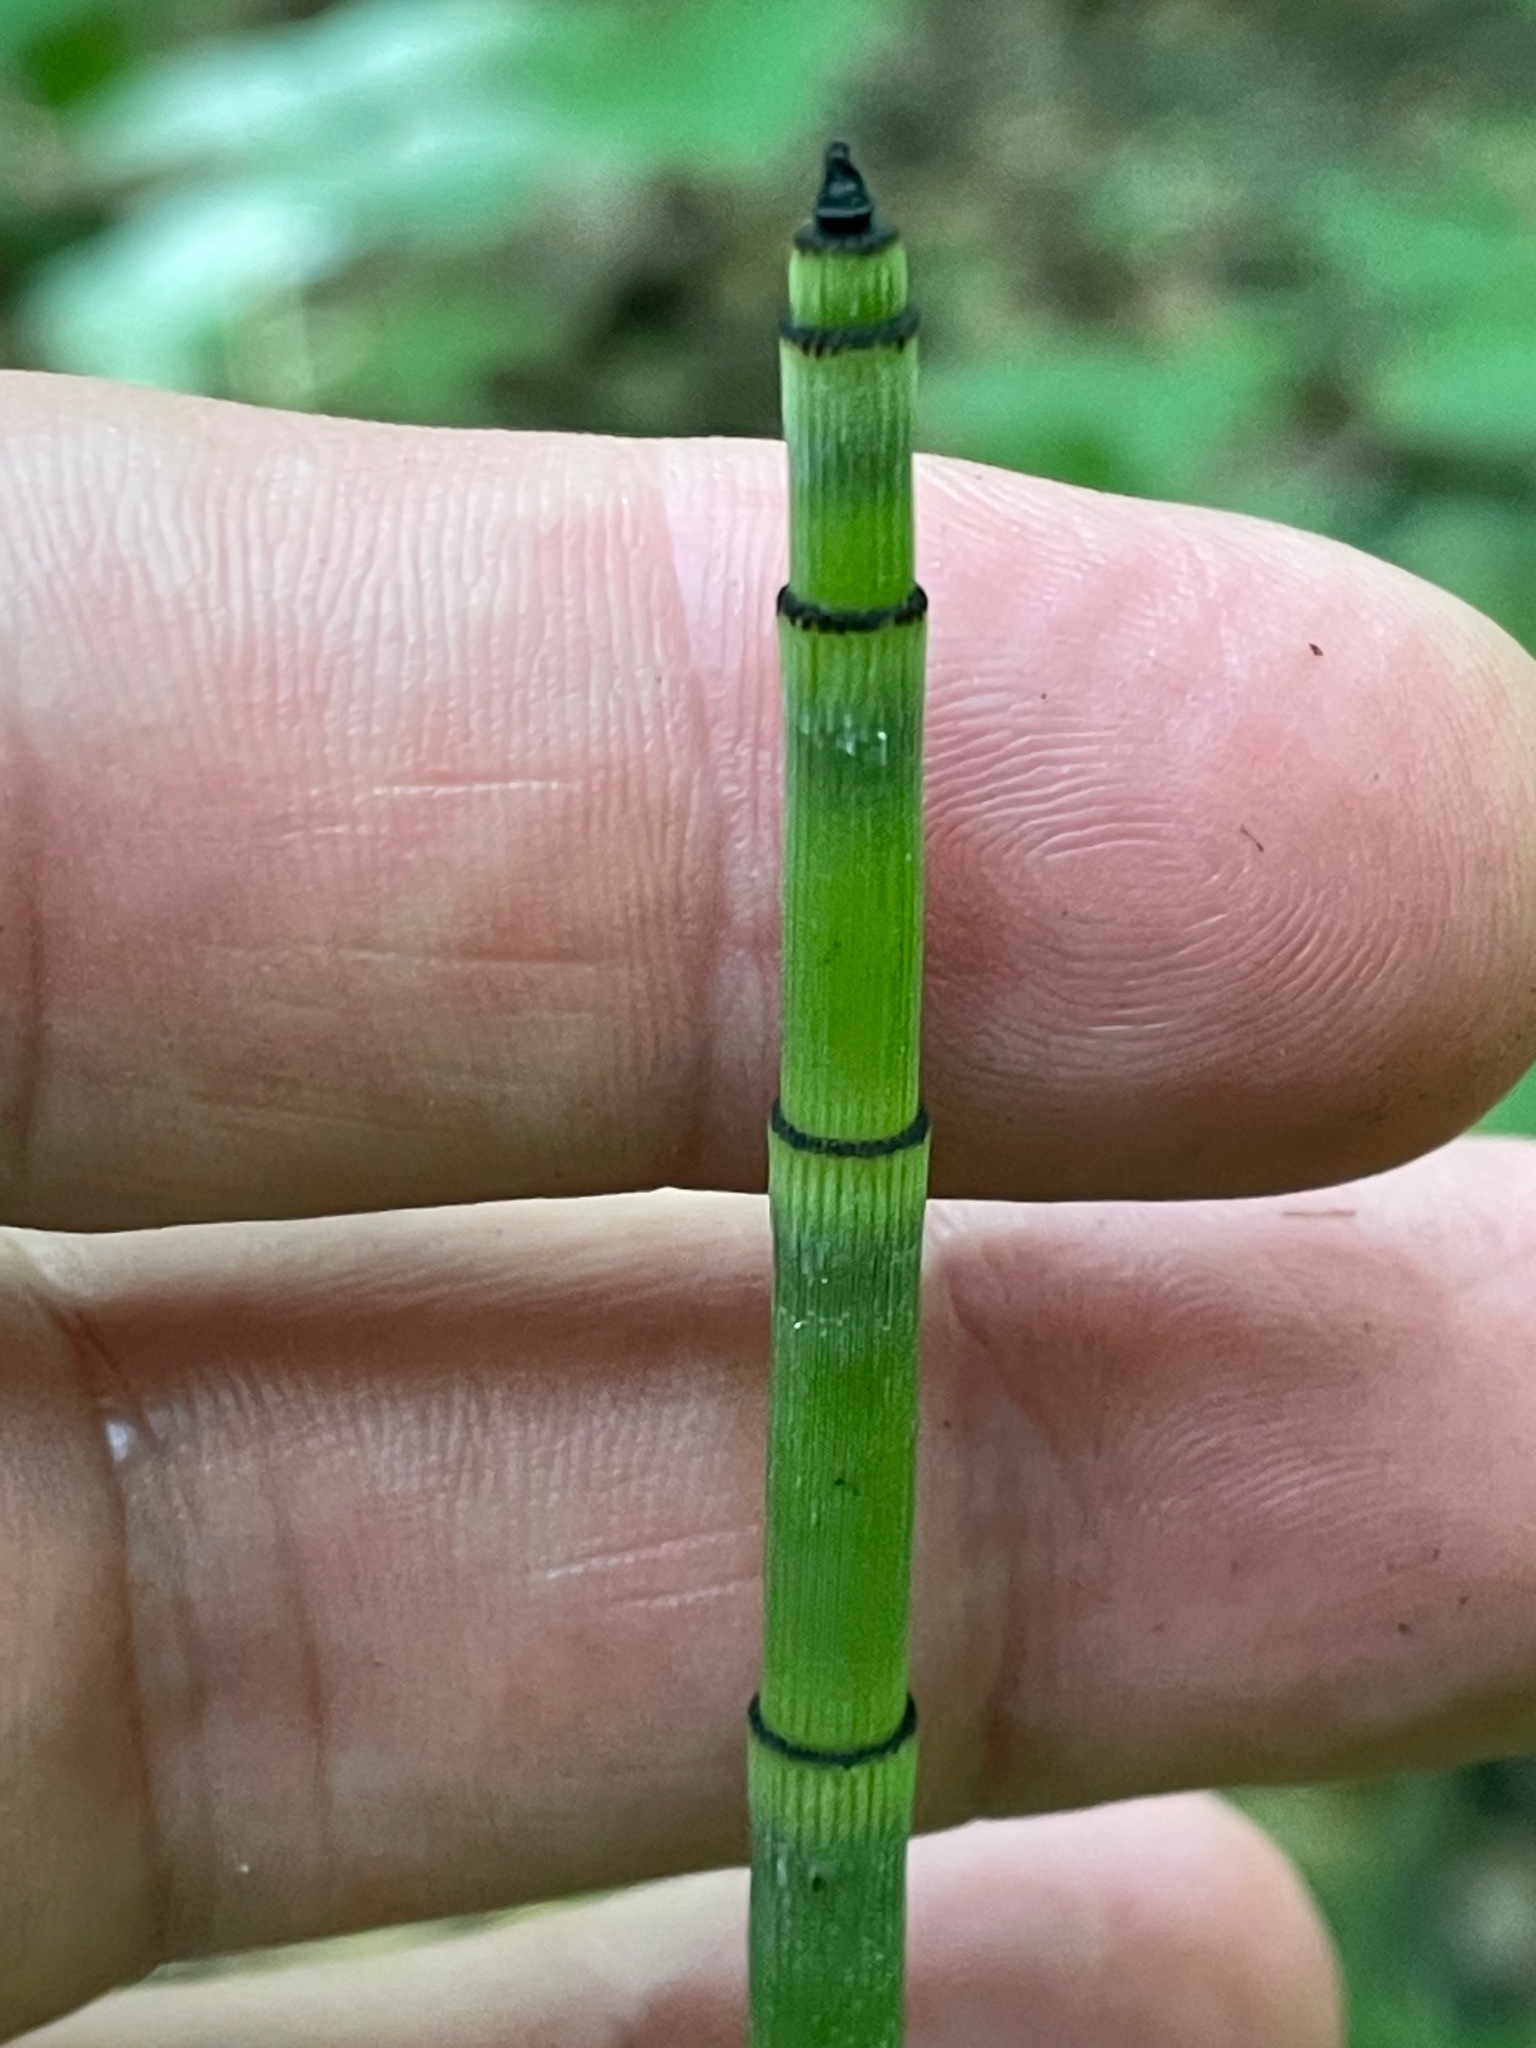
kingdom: Plantae
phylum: Tracheophyta
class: Polypodiopsida
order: Equisetales
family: Equisetaceae
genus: Equisetum
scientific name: Equisetum hyemale
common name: Rough horsetail
